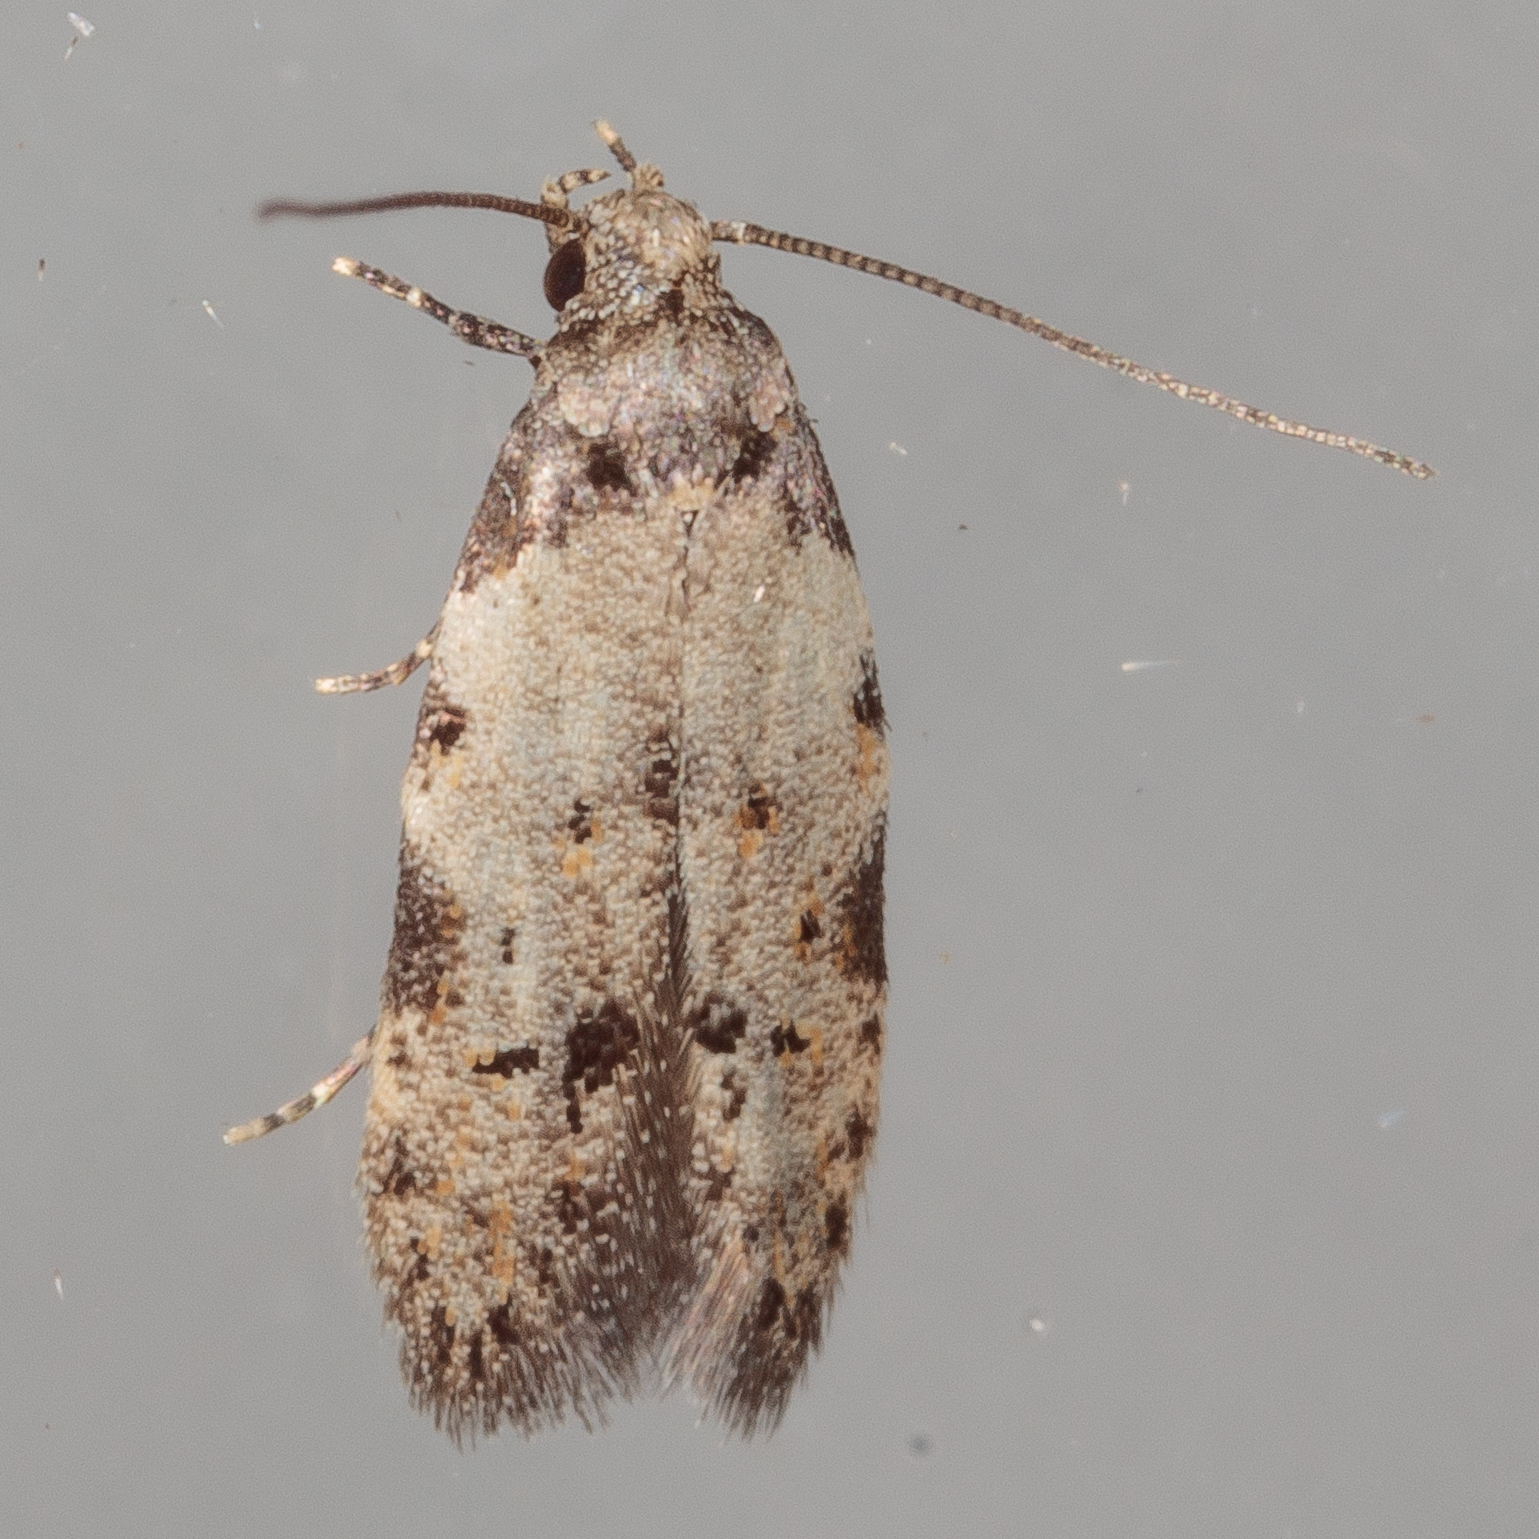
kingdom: Animalia
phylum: Arthropoda
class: Insecta
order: Lepidoptera
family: Autostichidae
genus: Taygete
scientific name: Taygete attributella
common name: Triangle-marked twirler moth
